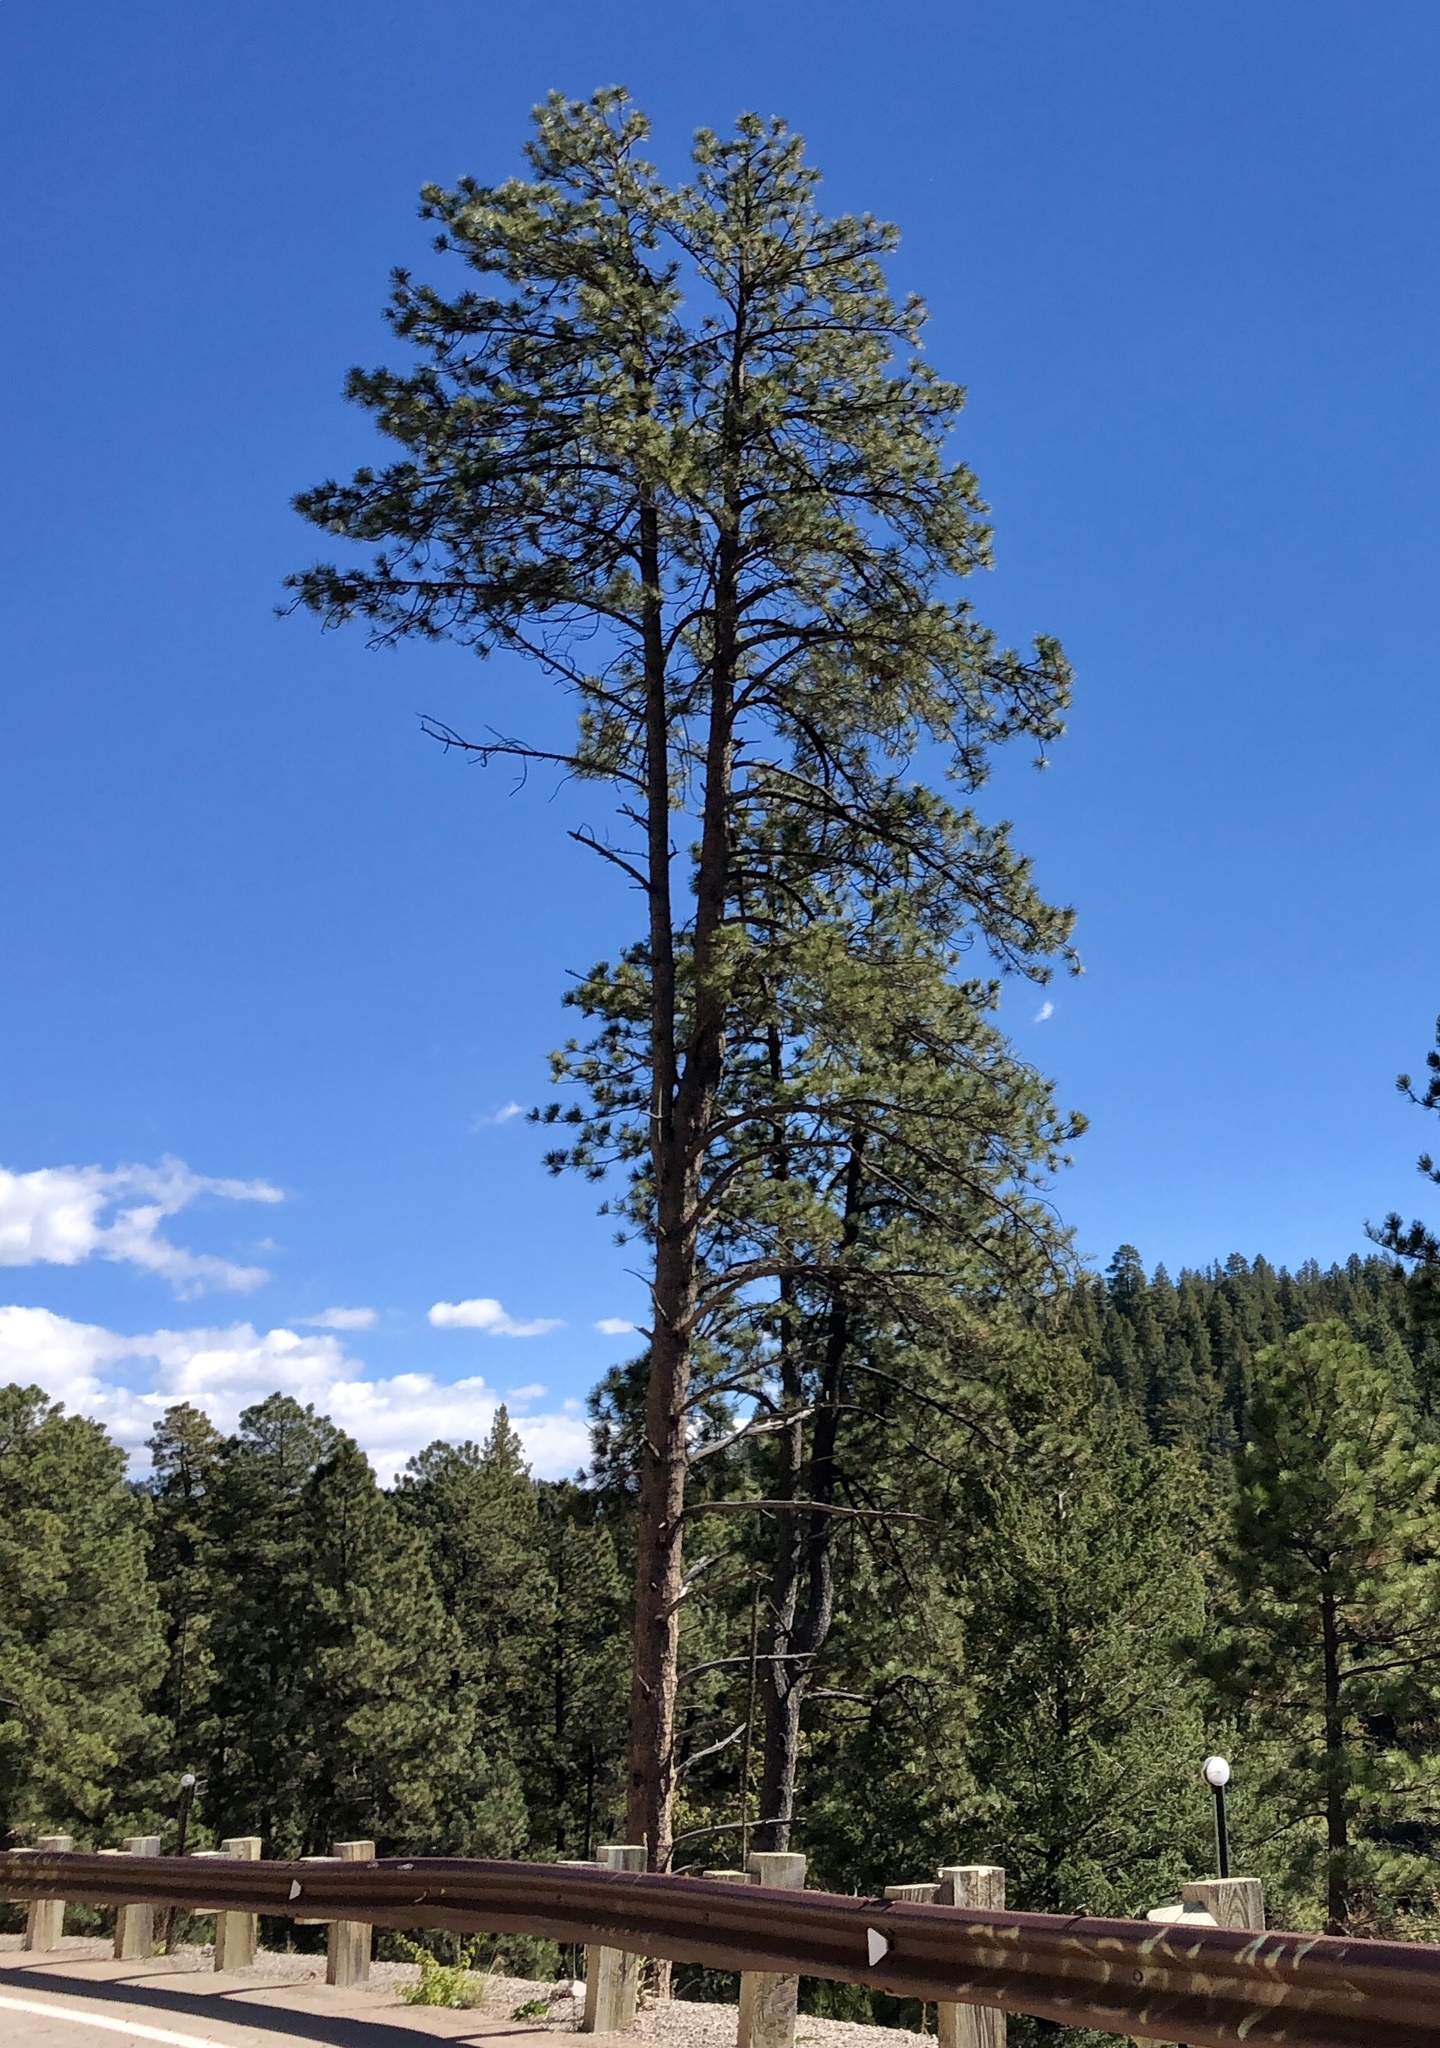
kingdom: Plantae
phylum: Tracheophyta
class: Pinopsida
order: Pinales
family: Pinaceae
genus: Pinus
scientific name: Pinus ponderosa
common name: Western yellow-pine
